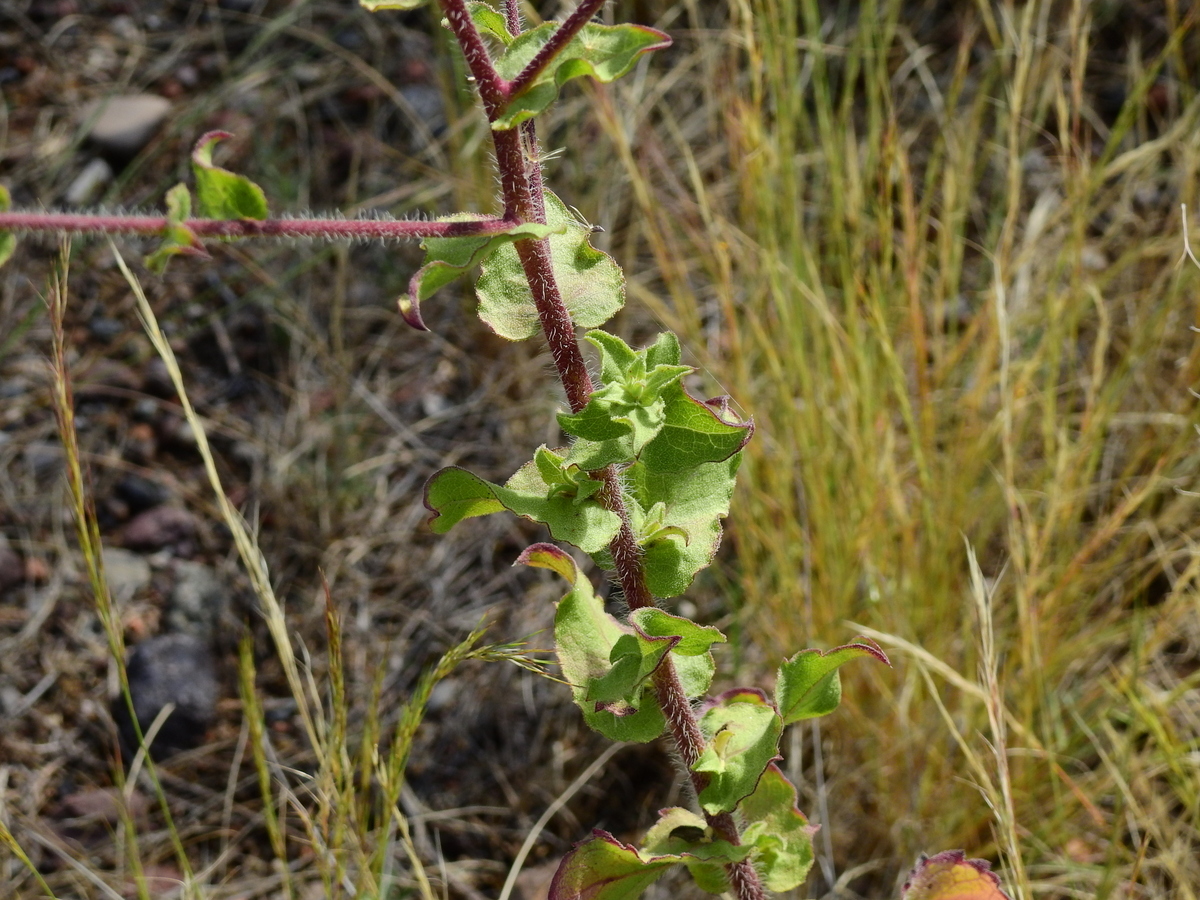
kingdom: Plantae
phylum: Tracheophyta
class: Magnoliopsida
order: Asterales
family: Asteraceae
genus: Heterotheca
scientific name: Heterotheca subaxillaris
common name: Camphorweed
